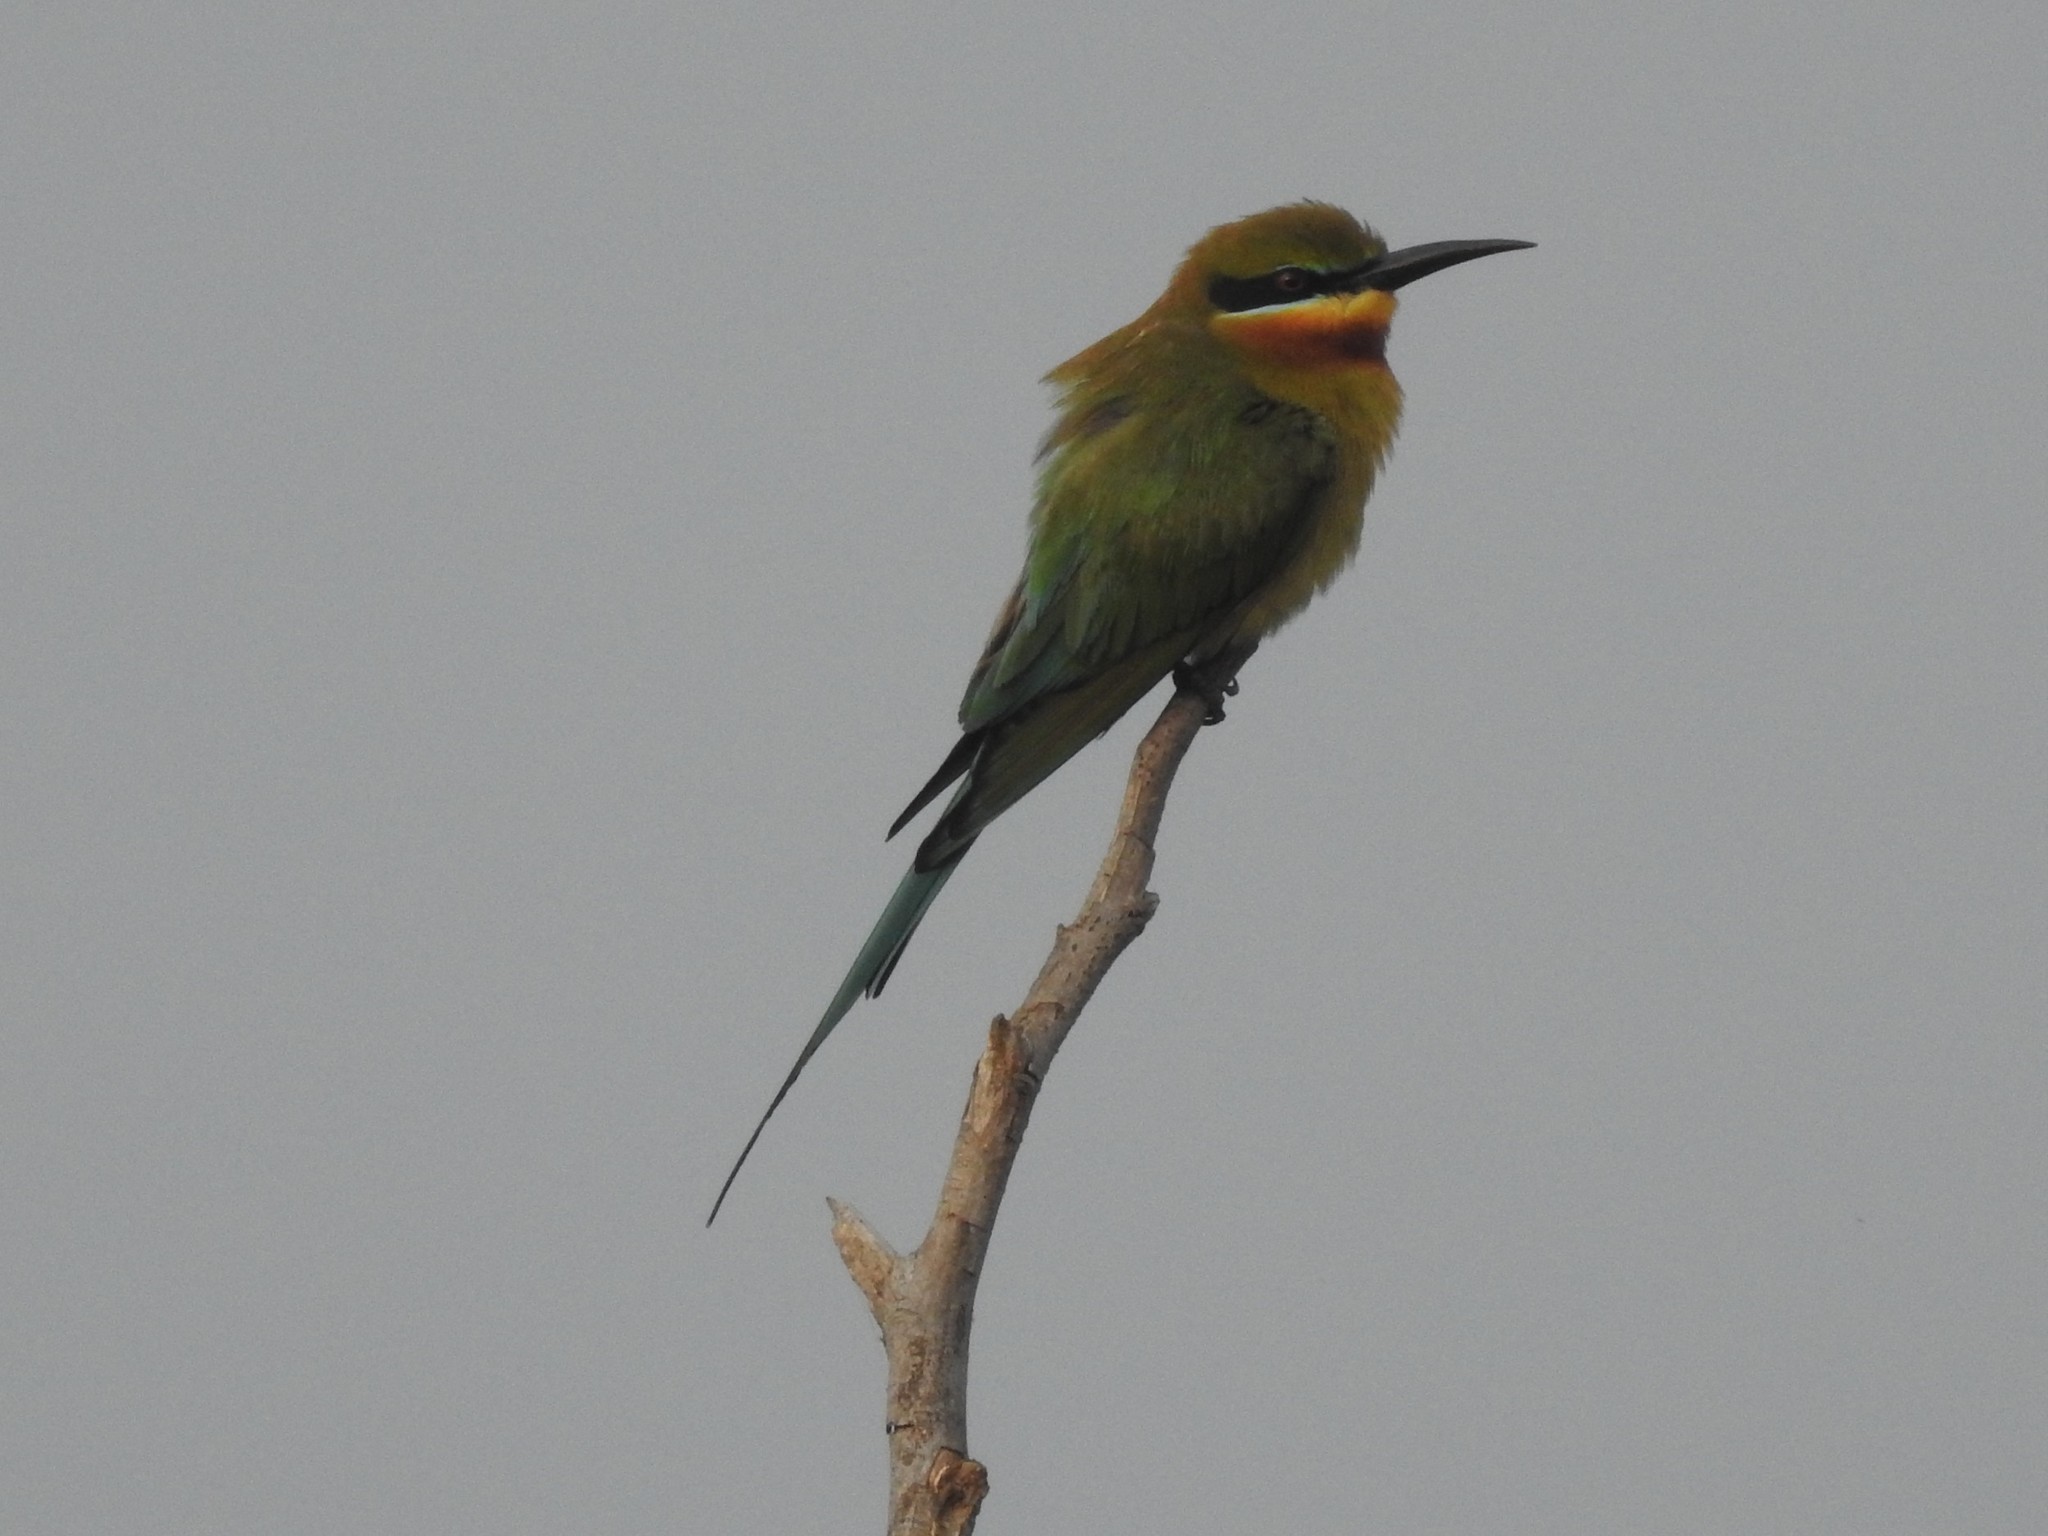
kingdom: Animalia
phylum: Chordata
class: Aves
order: Coraciiformes
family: Meropidae
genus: Merops
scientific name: Merops philippinus
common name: Blue-tailed bee-eater
